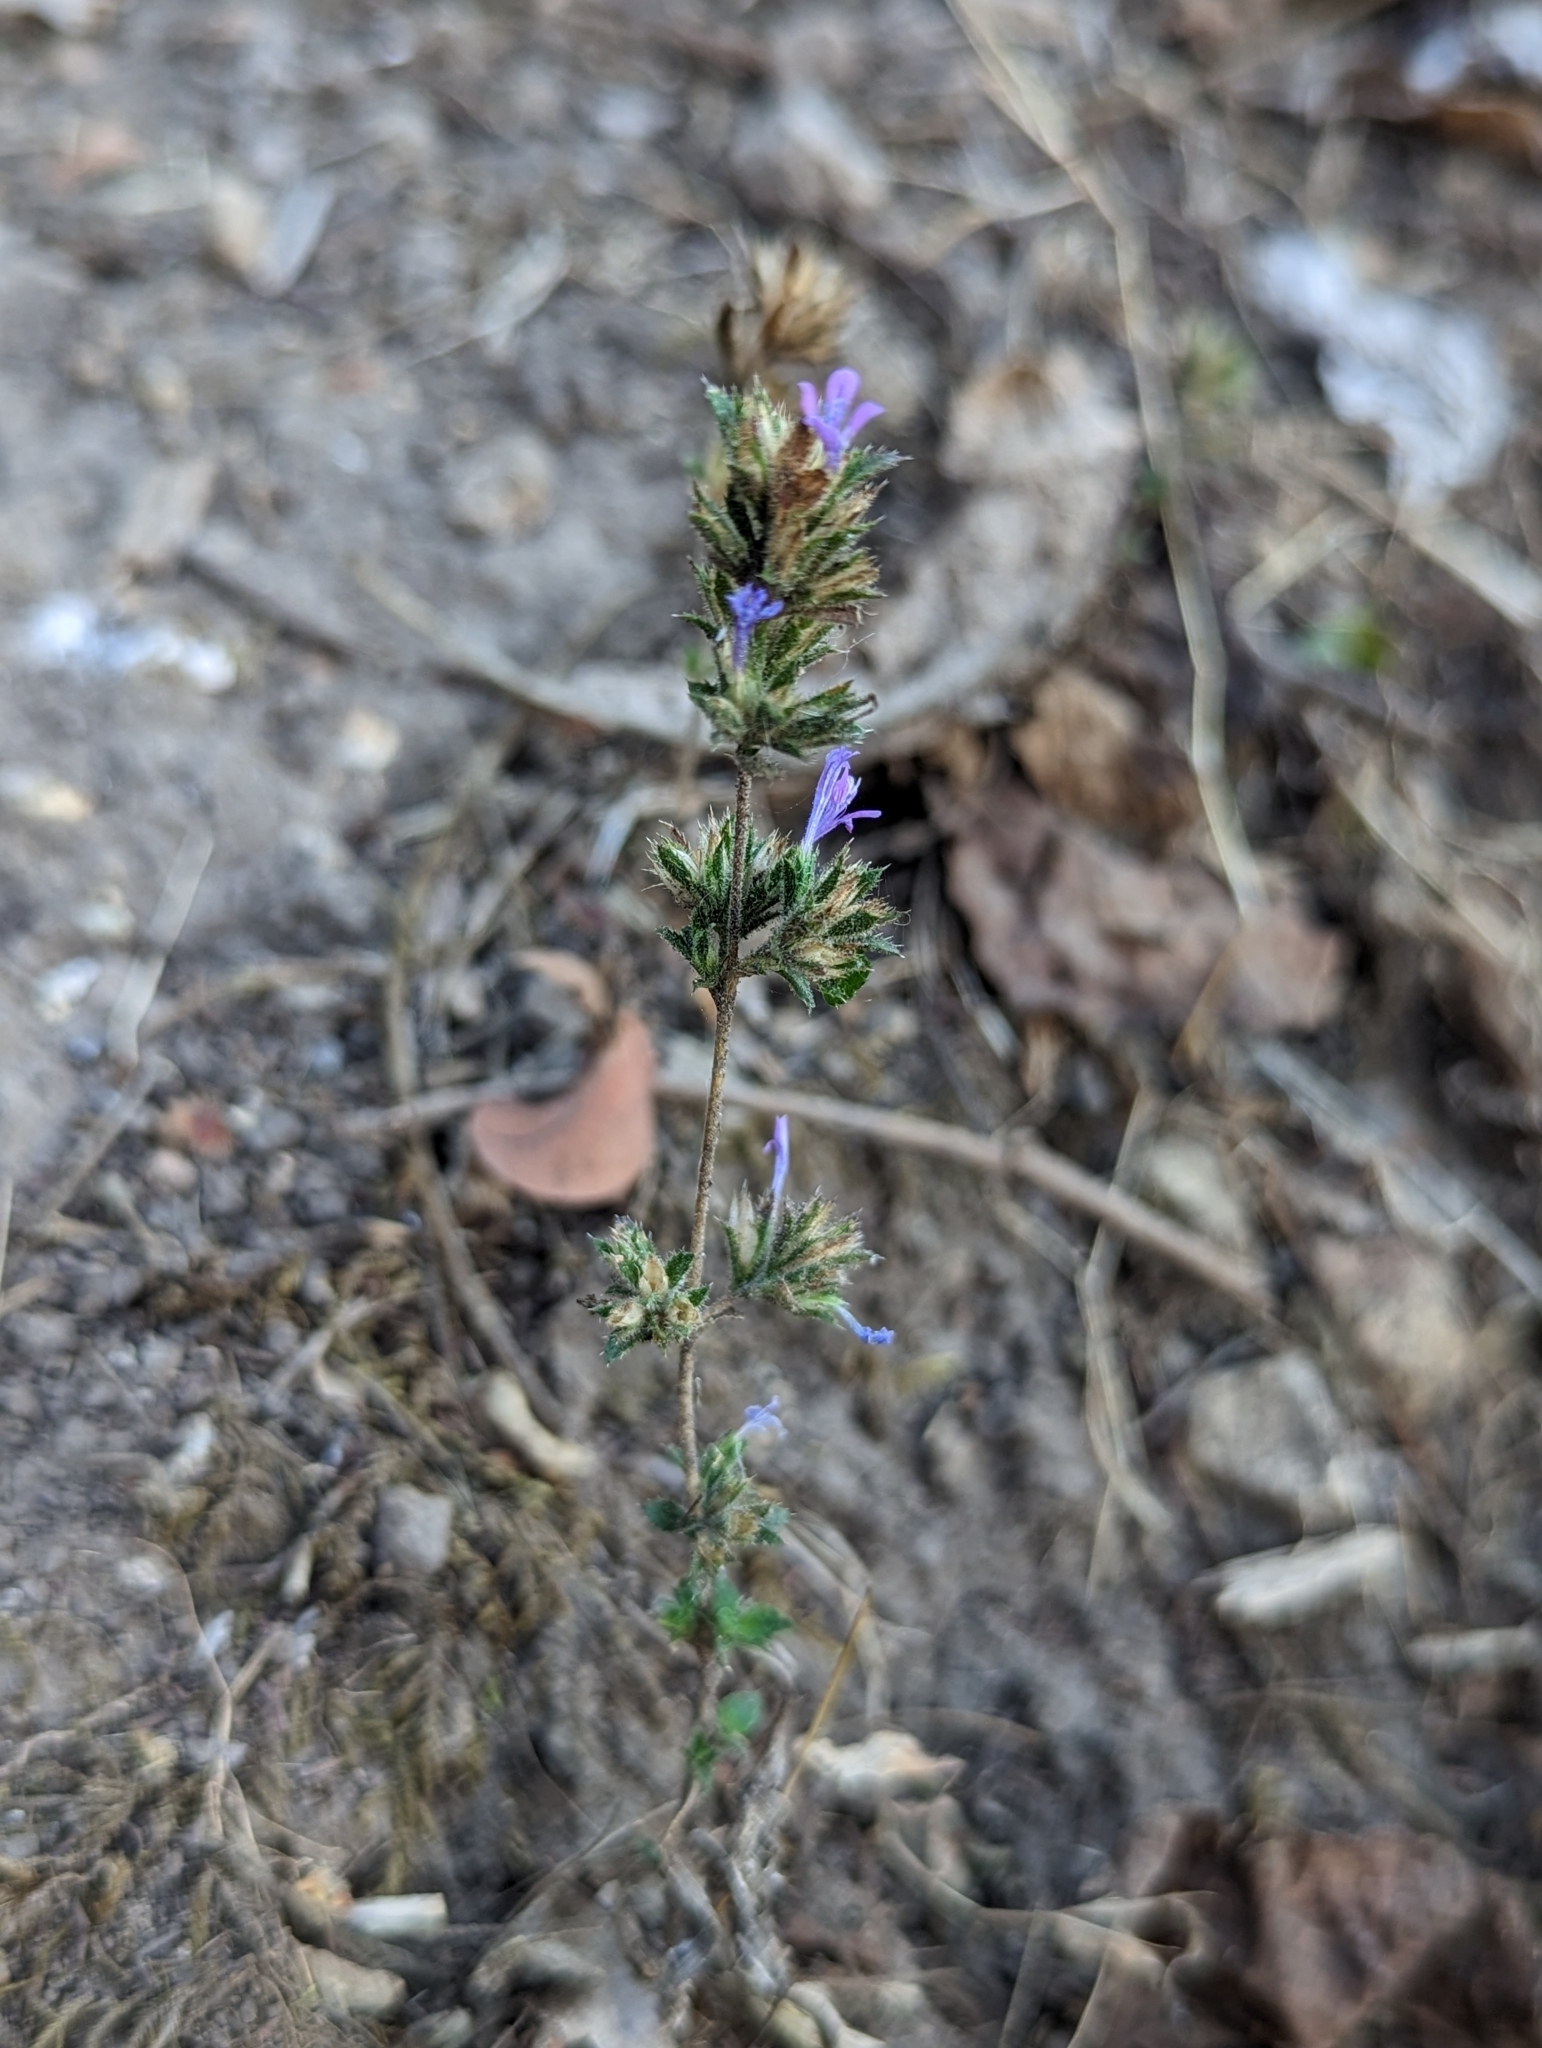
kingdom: Plantae
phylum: Tracheophyta
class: Magnoliopsida
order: Ericales
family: Polemoniaceae
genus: Loeselia
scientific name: Loeselia glandulosa
